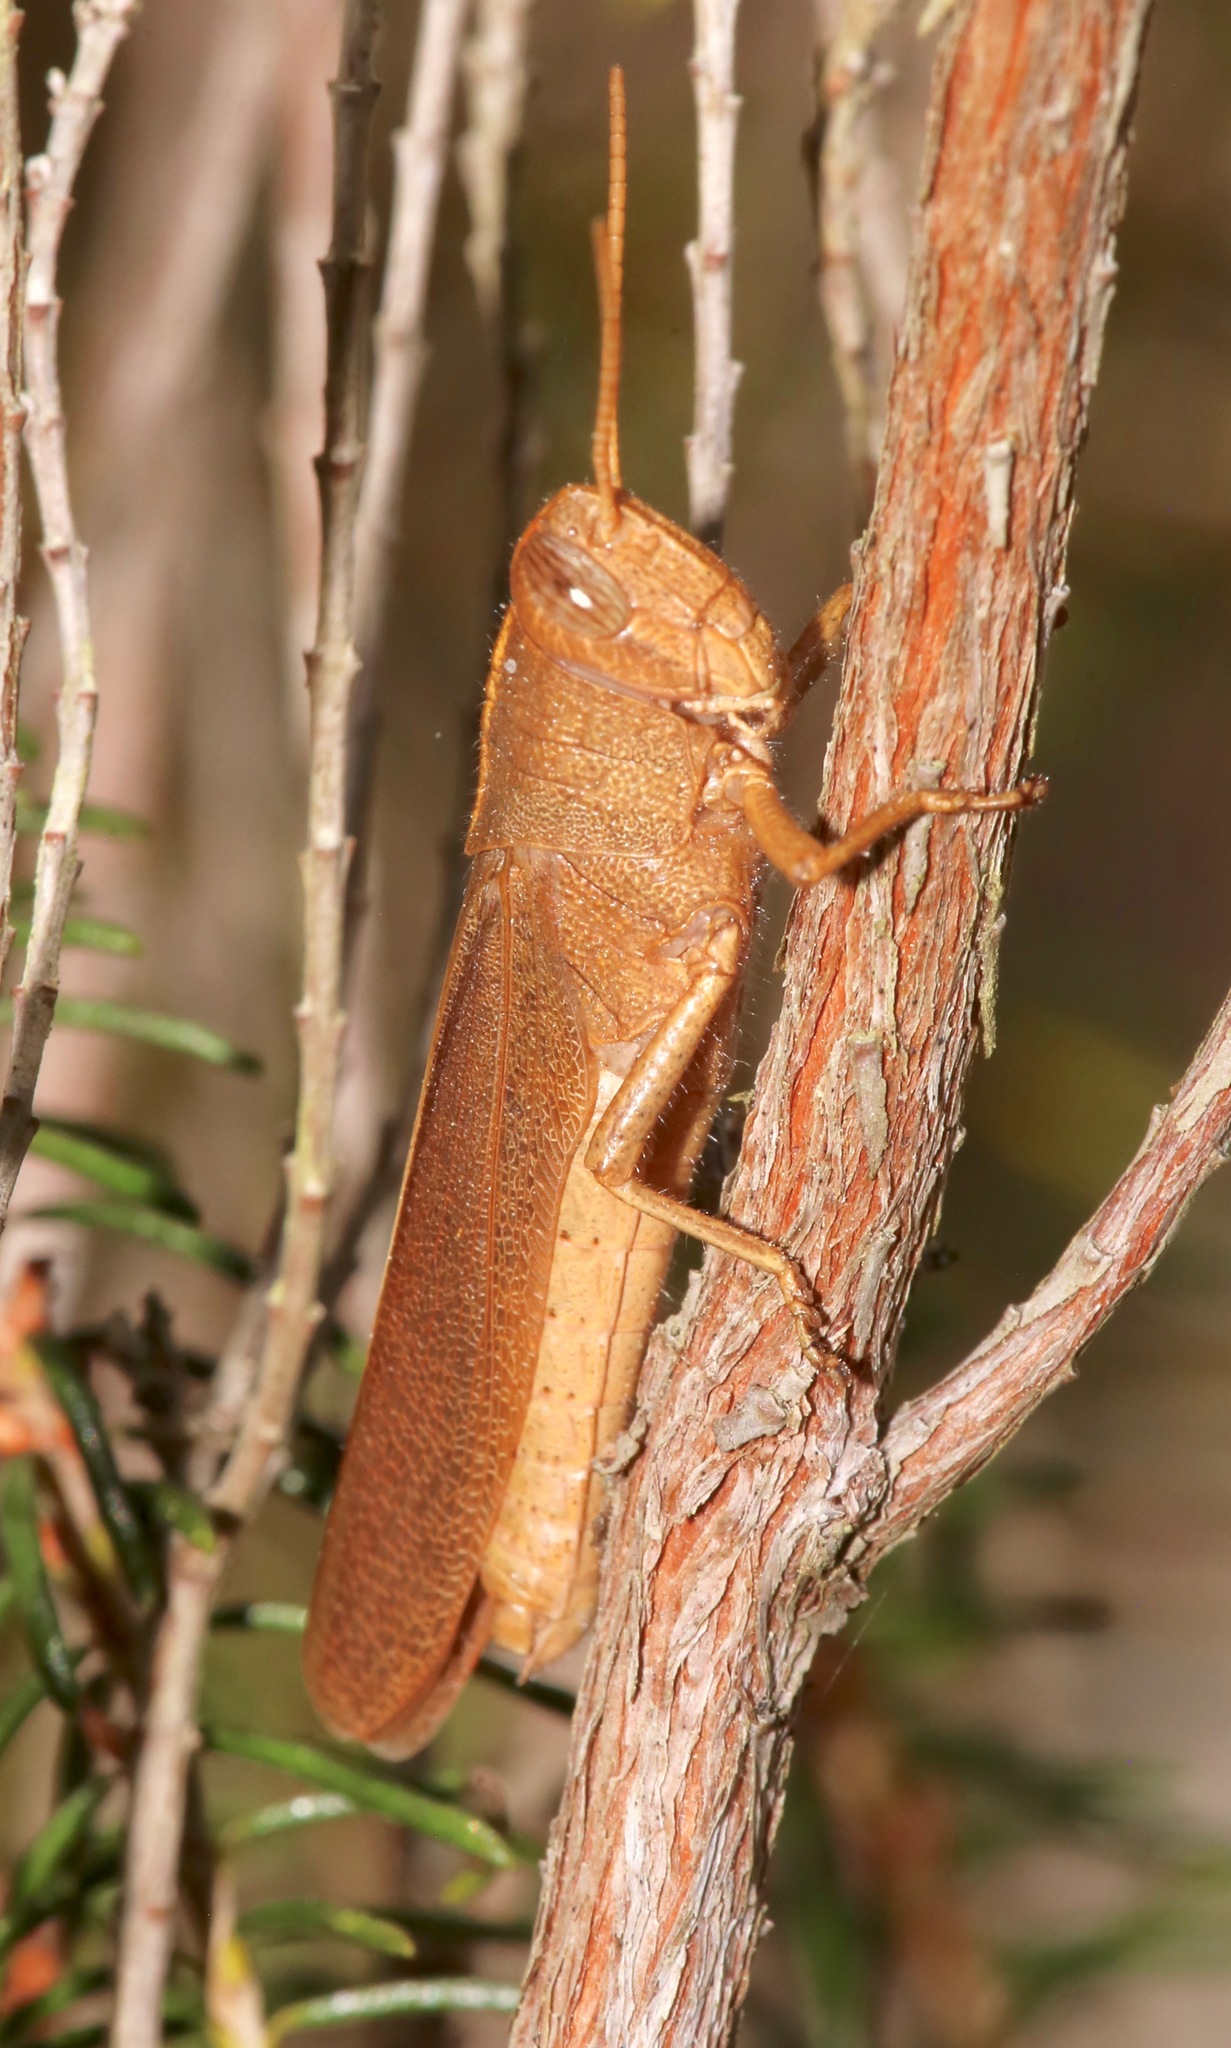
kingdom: Animalia
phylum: Arthropoda
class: Insecta
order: Orthoptera
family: Acrididae
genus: Schistocerca
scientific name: Schistocerca damnifica
